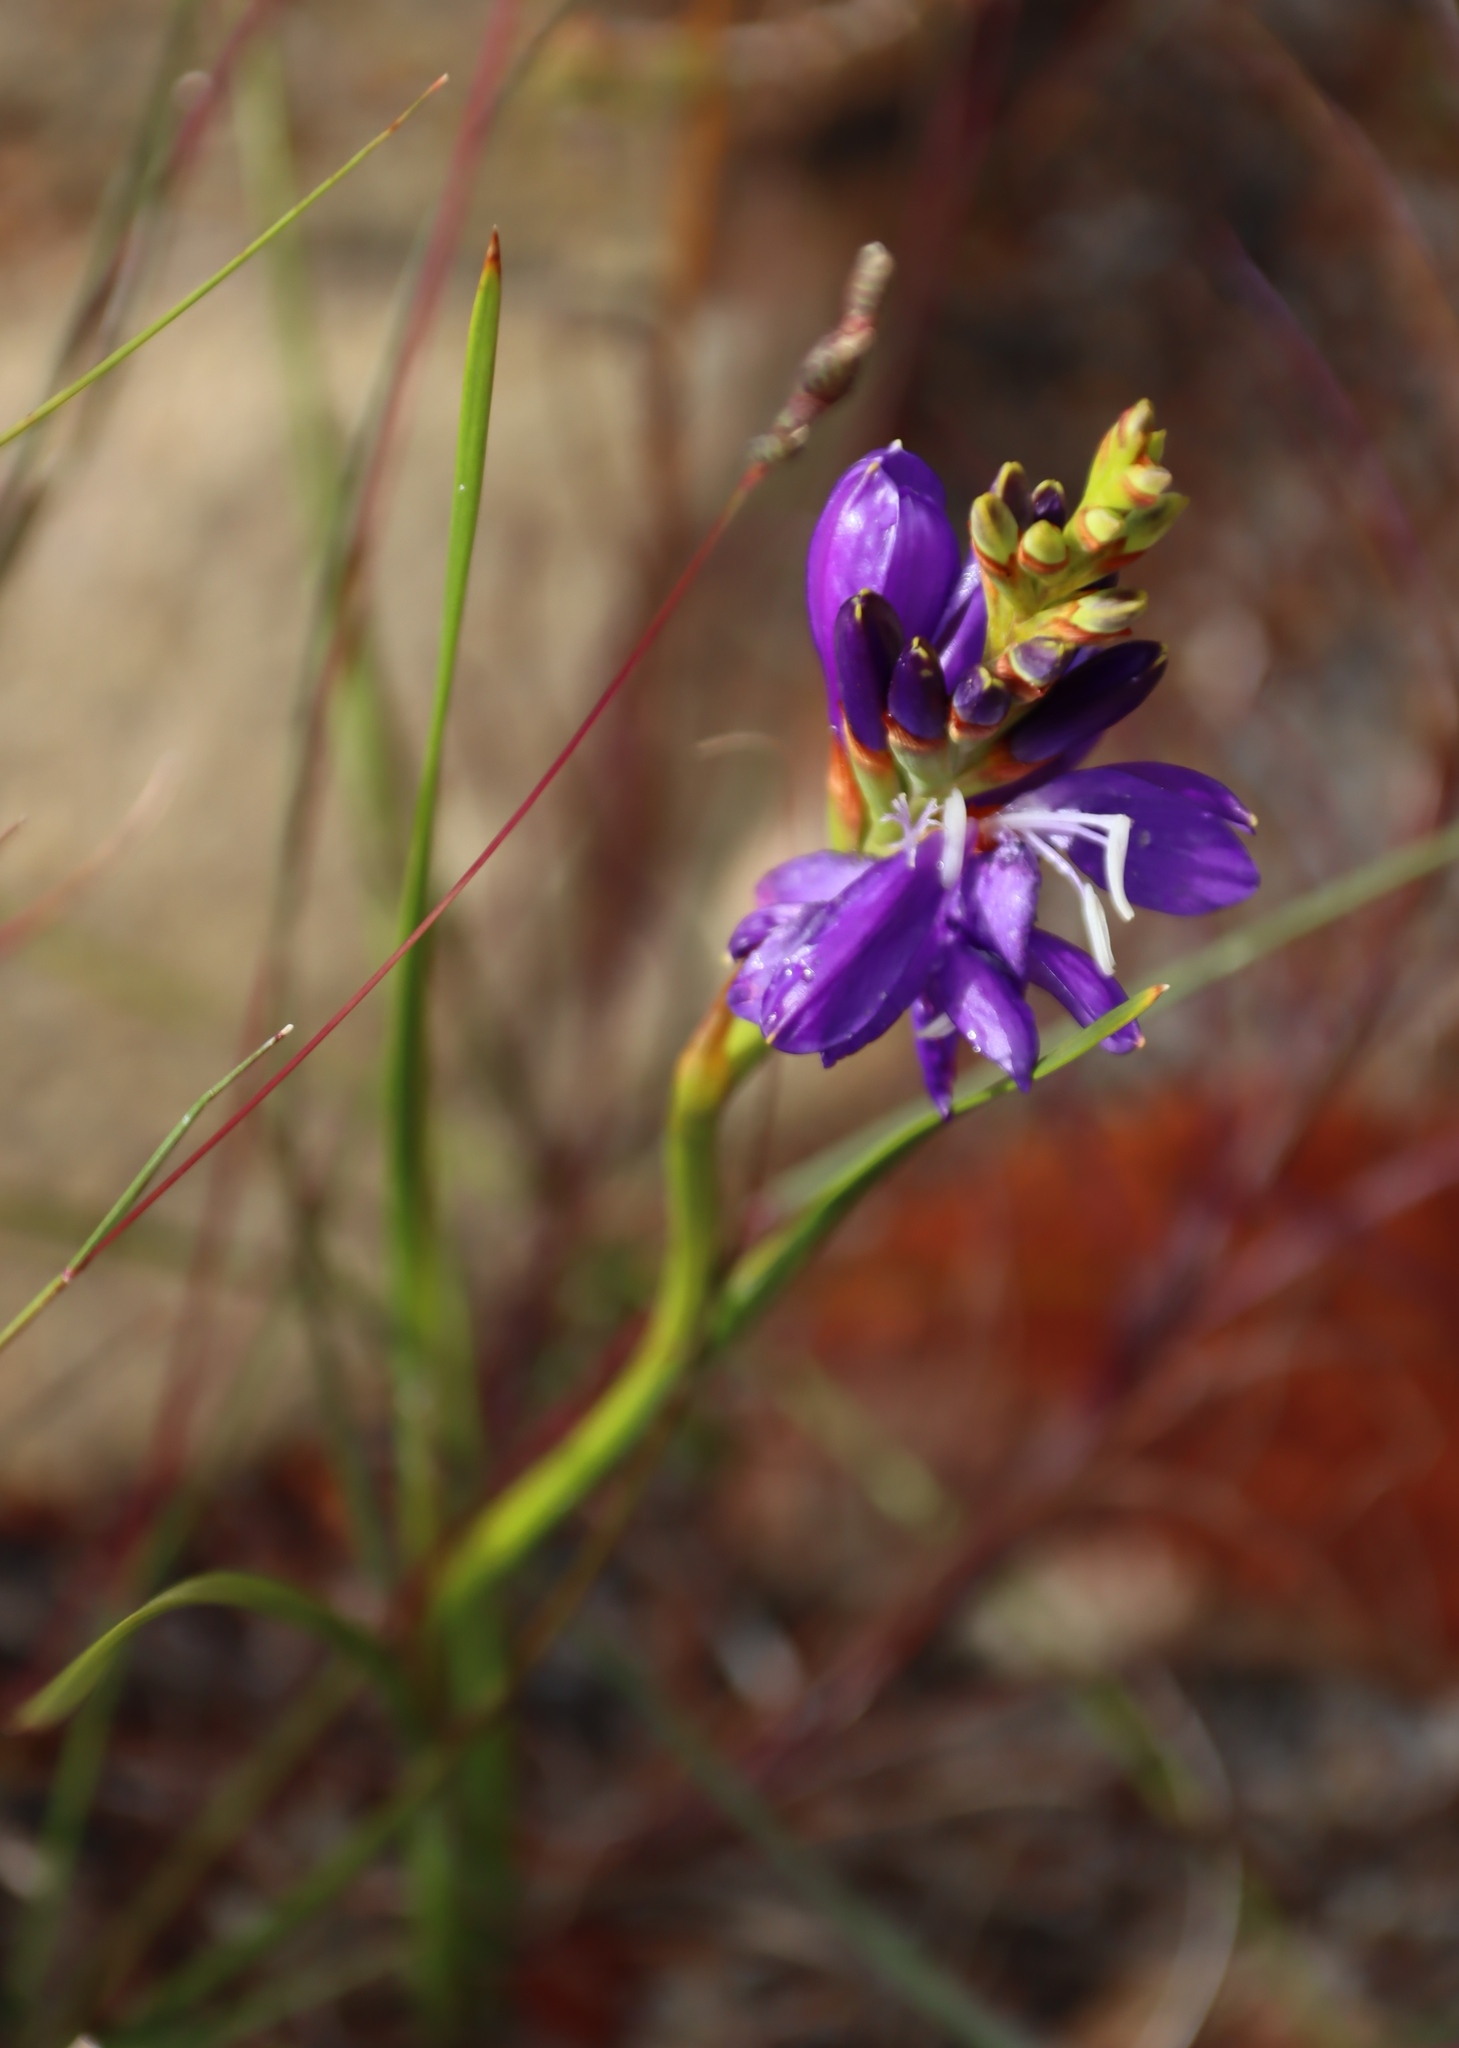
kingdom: Plantae
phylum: Tracheophyta
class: Liliopsida
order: Asparagales
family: Iridaceae
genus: Thereianthus
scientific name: Thereianthus bracteolatus
